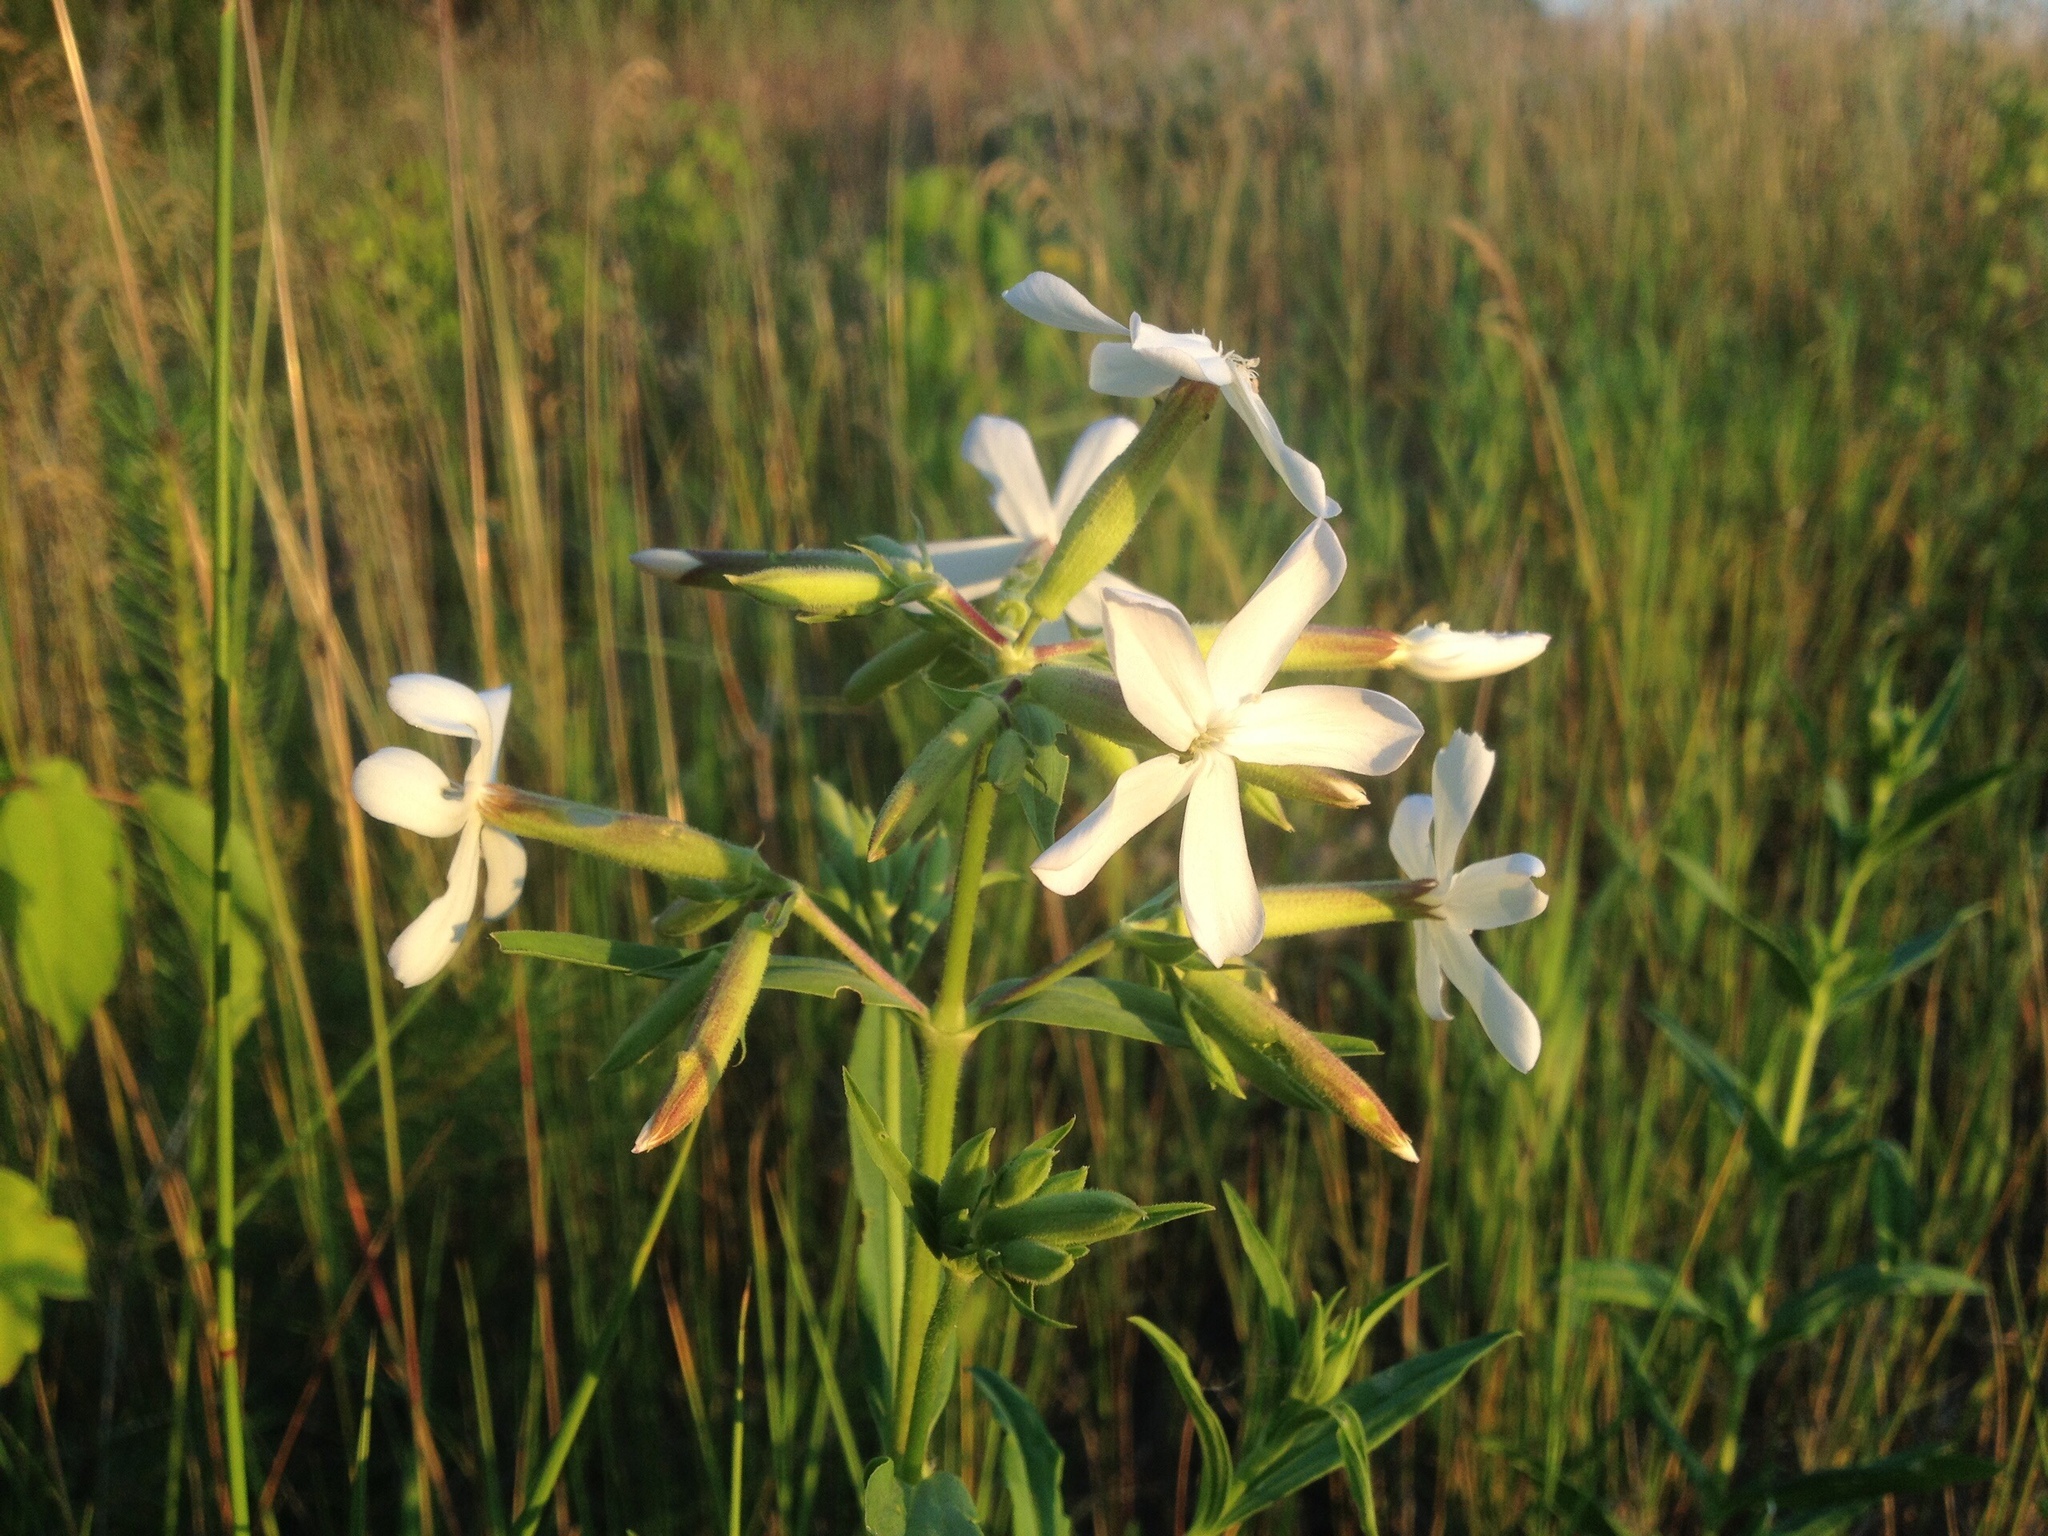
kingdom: Plantae
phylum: Tracheophyta
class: Magnoliopsida
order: Caryophyllales
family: Caryophyllaceae
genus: Saponaria
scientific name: Saponaria officinalis
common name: Soapwort
